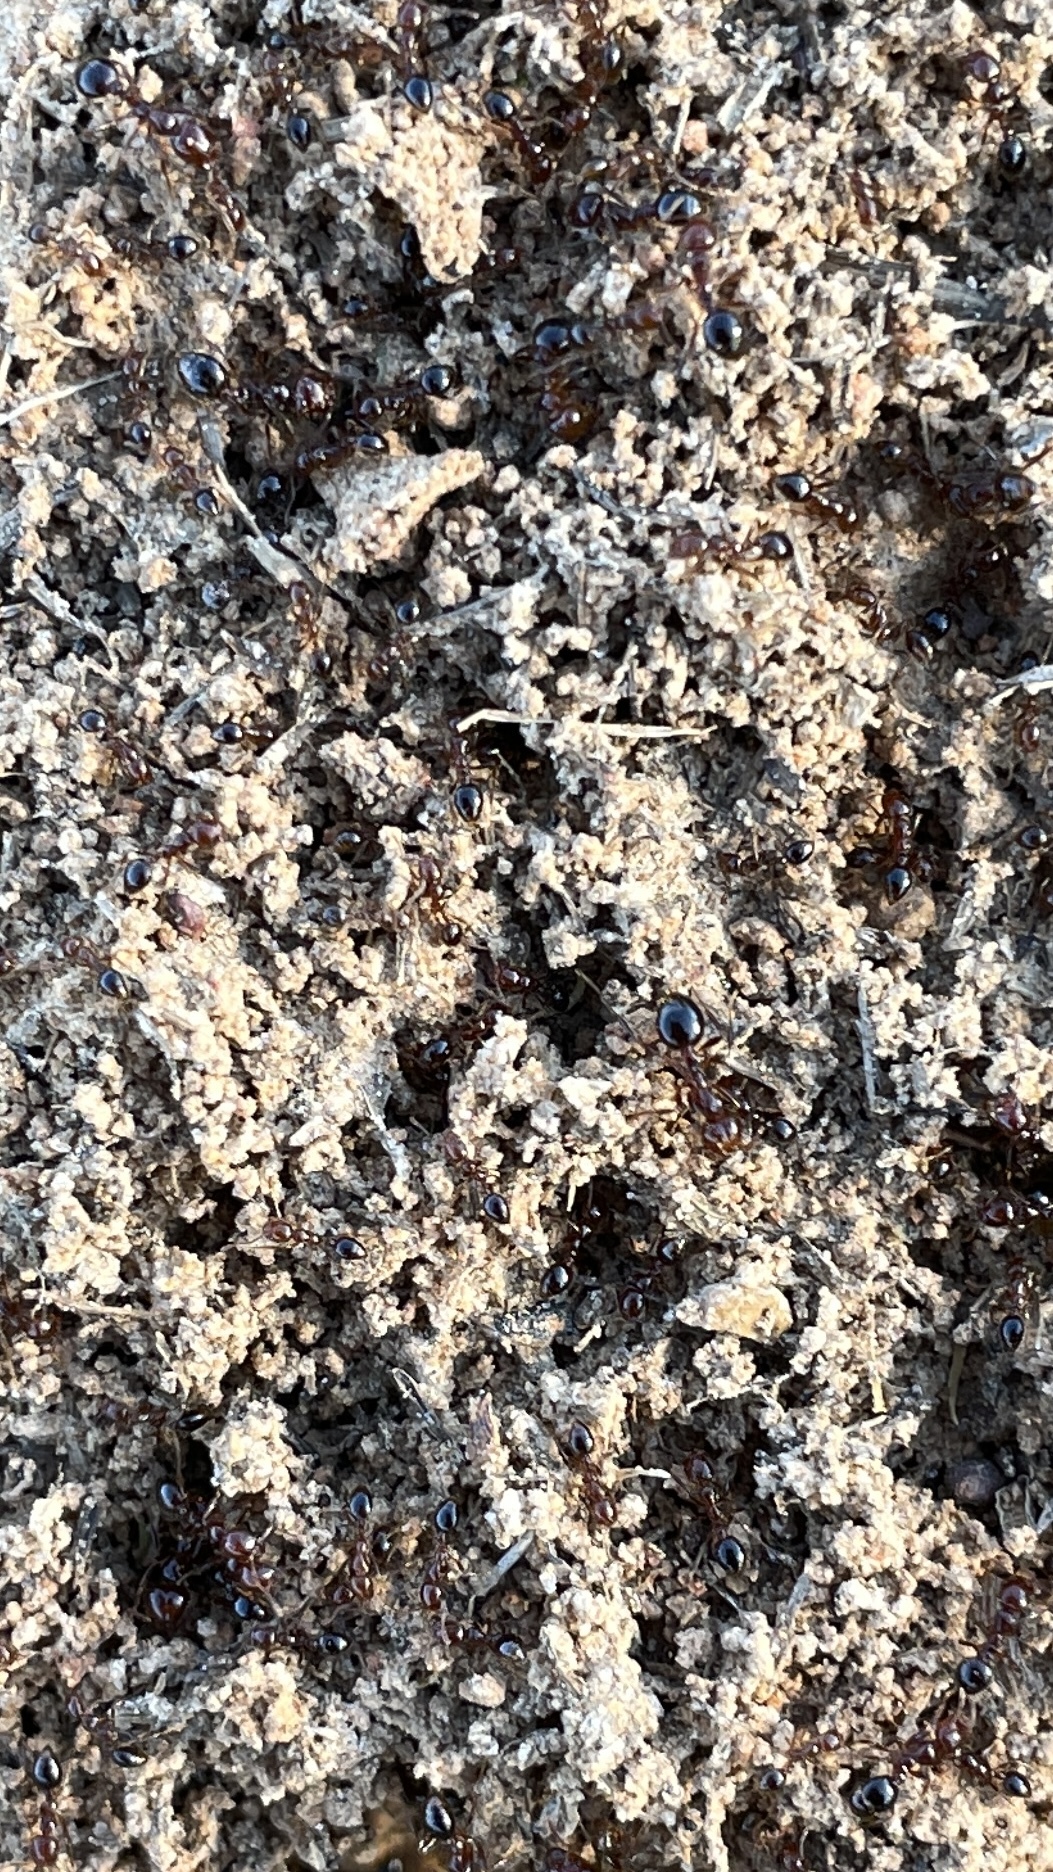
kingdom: Animalia
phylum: Arthropoda
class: Insecta
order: Hymenoptera
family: Formicidae
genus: Solenopsis
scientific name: Solenopsis invicta
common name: Red imported fire ant
